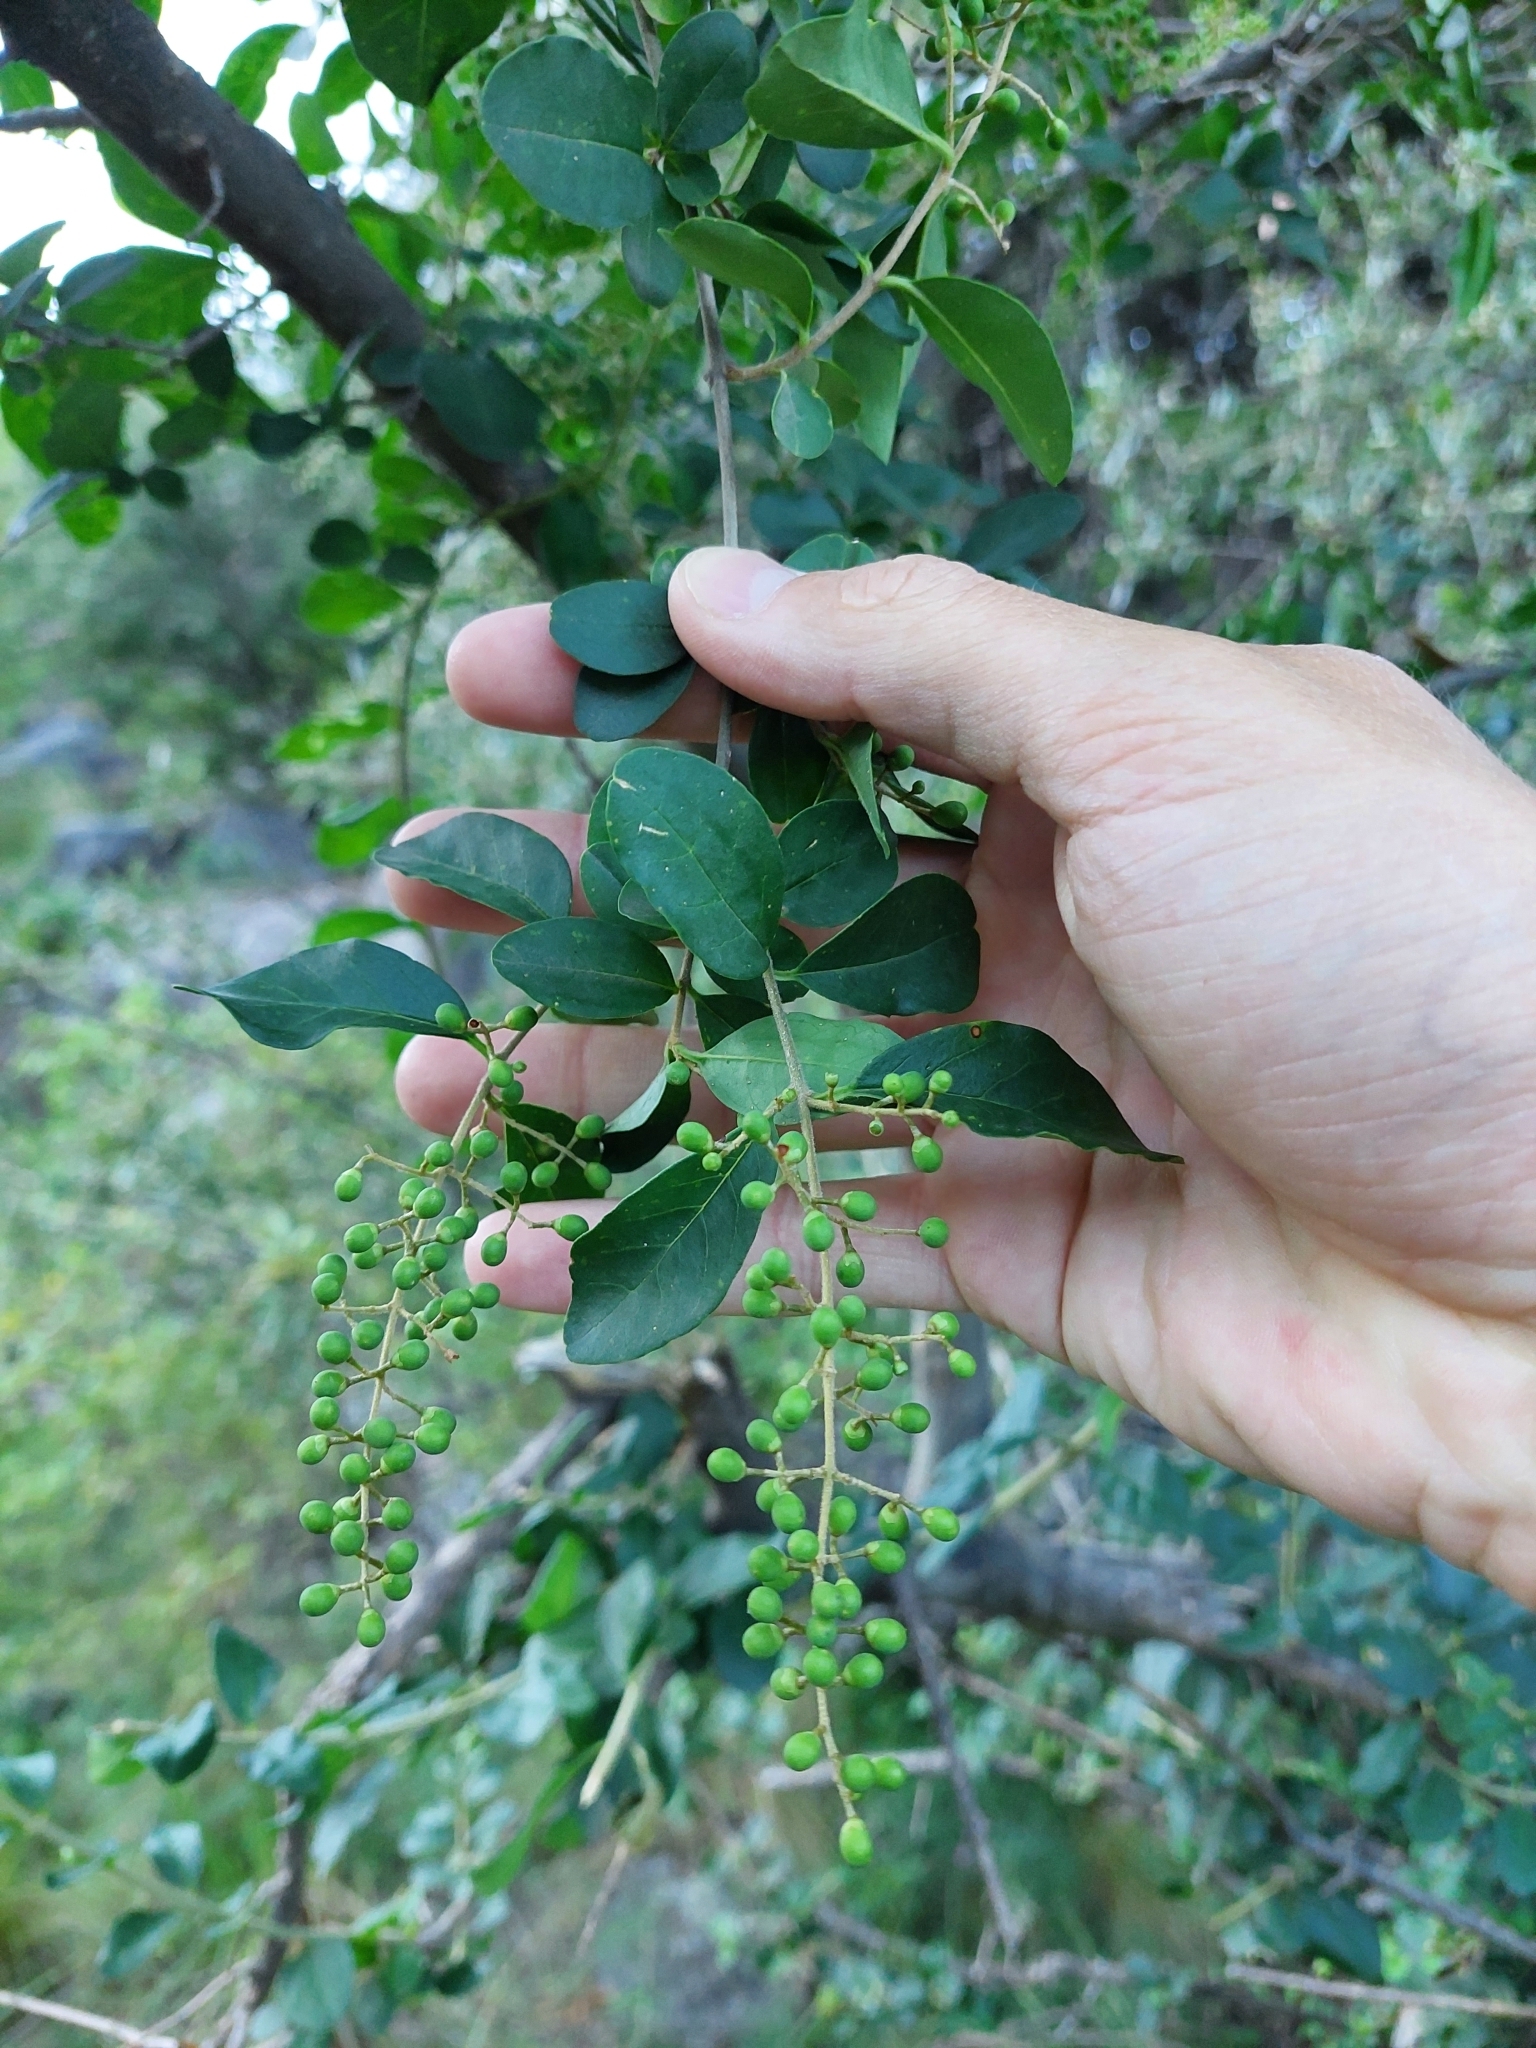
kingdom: Plantae
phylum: Tracheophyta
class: Magnoliopsida
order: Lamiales
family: Oleaceae
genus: Ligustrum
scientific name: Ligustrum sinense
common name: Chinese privet
